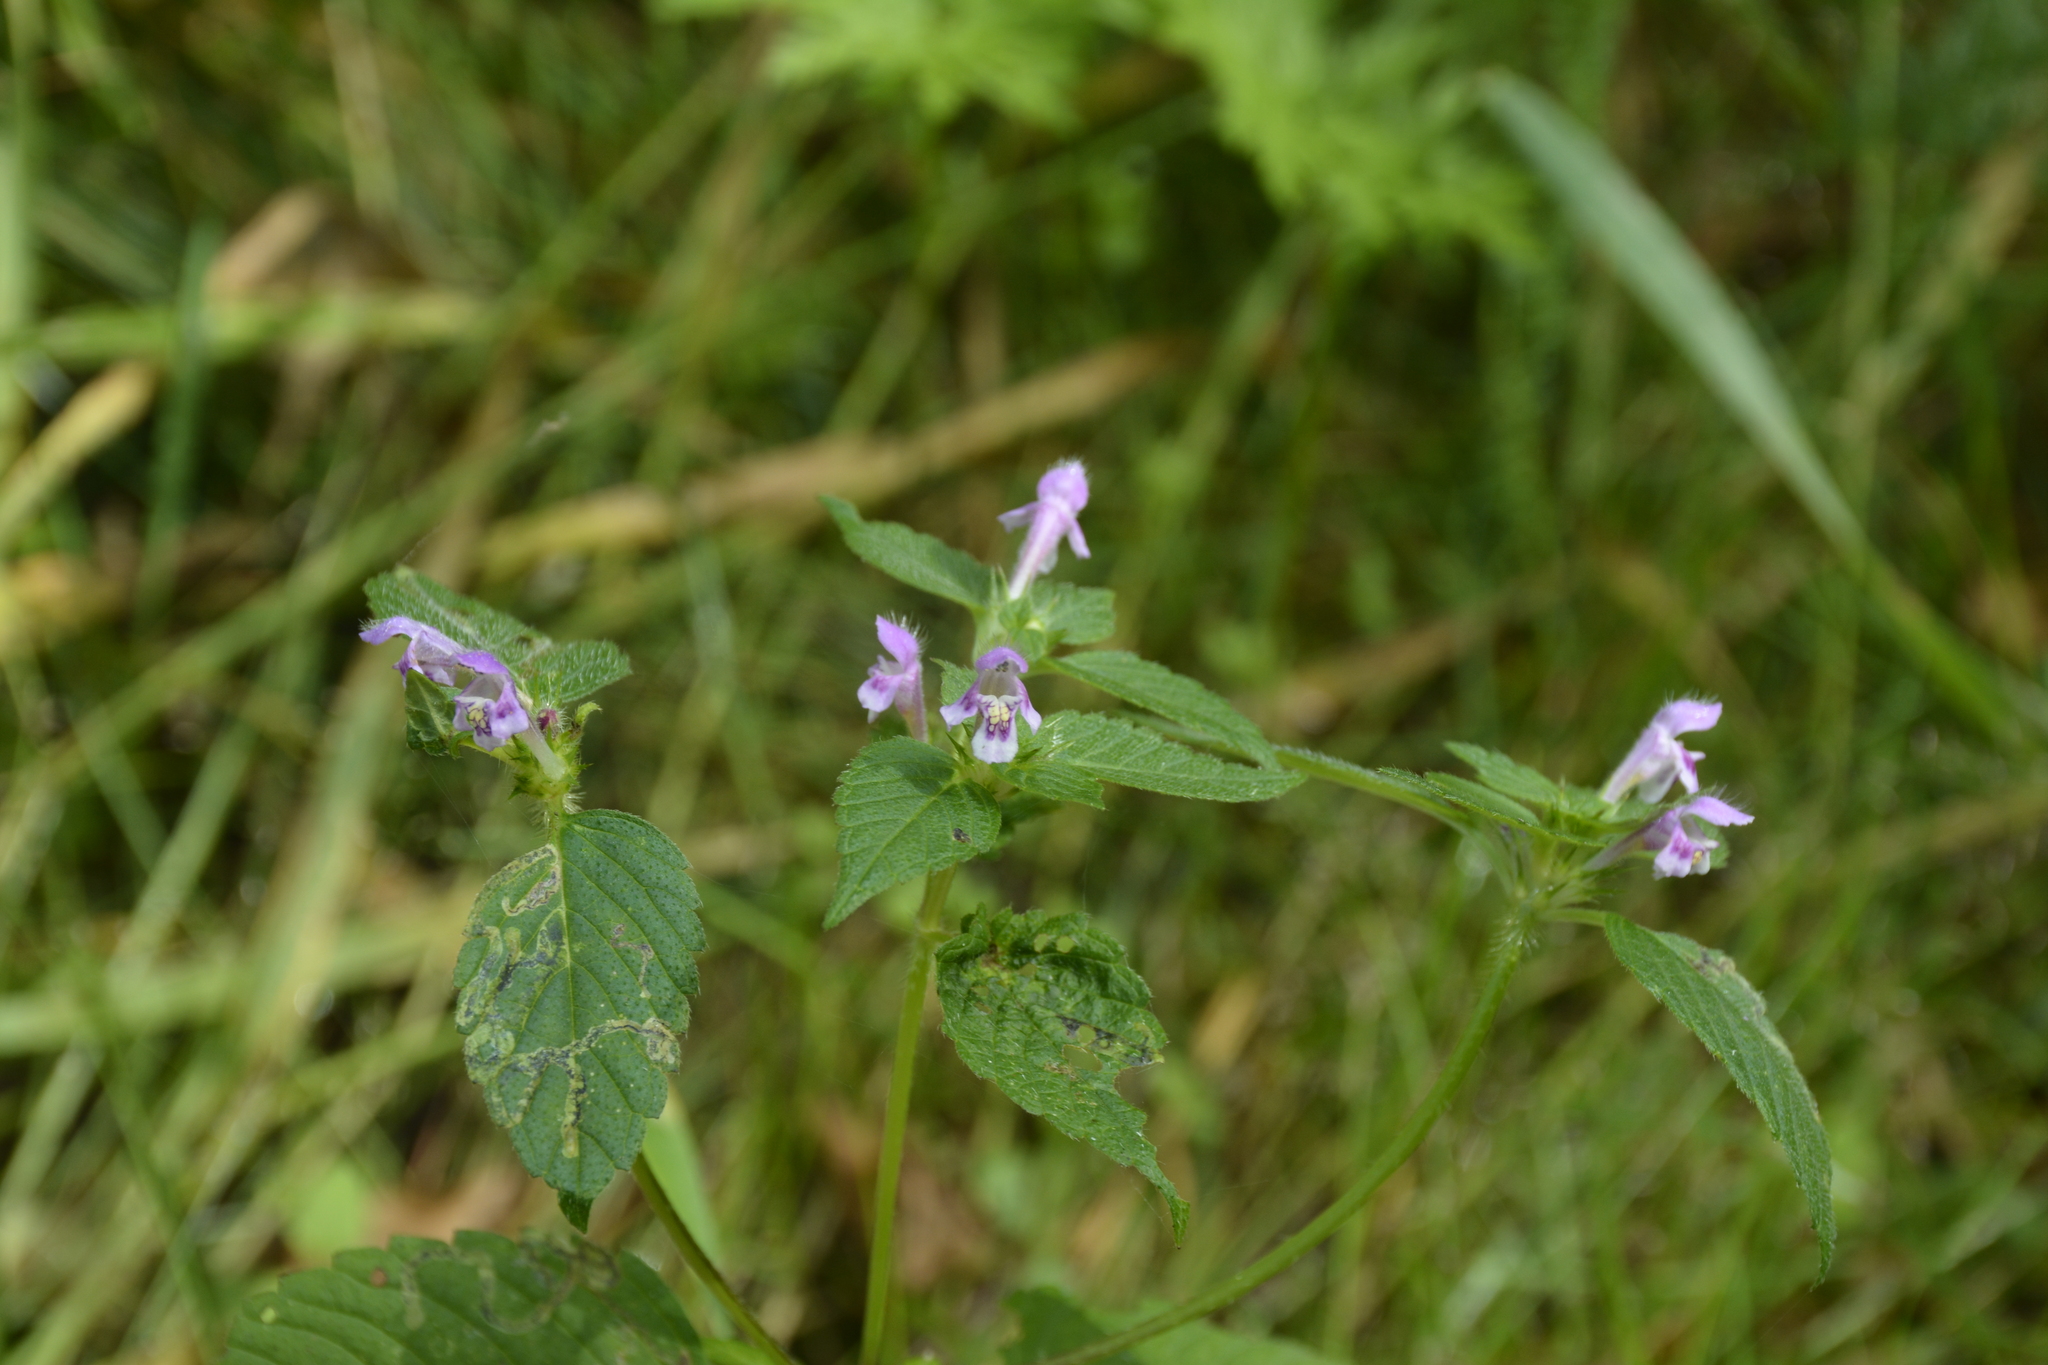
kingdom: Plantae
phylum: Tracheophyta
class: Magnoliopsida
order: Lamiales
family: Lamiaceae
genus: Galeopsis
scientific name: Galeopsis tetrahit
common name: Common hemp-nettle
